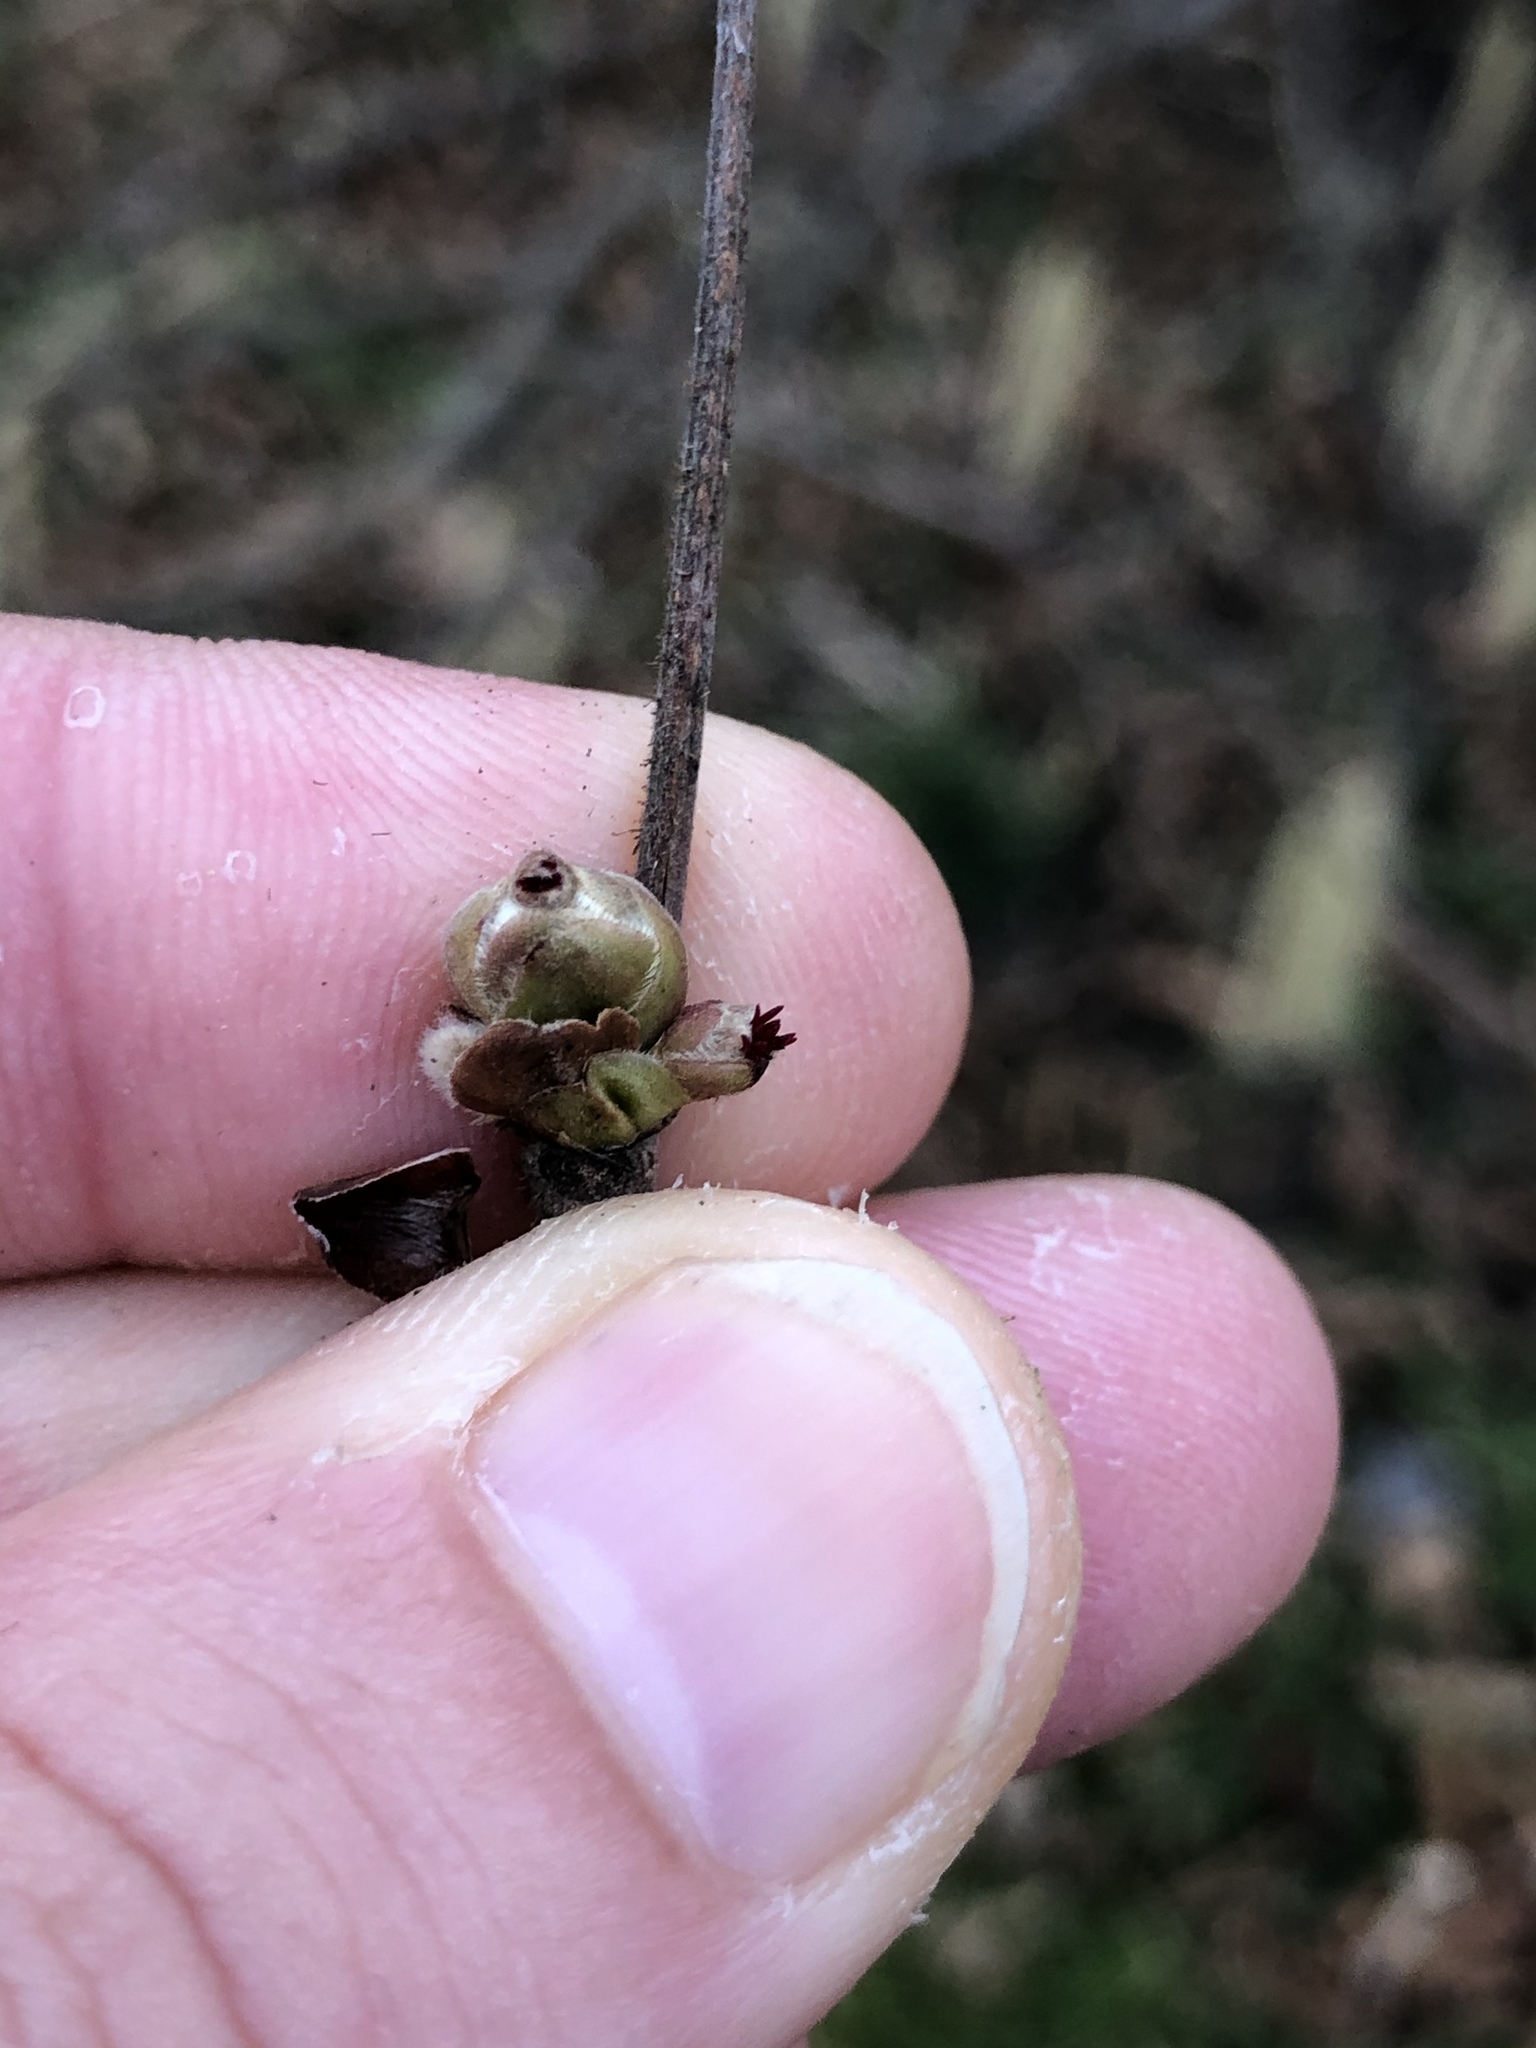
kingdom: Plantae
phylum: Tracheophyta
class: Magnoliopsida
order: Fagales
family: Betulaceae
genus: Corylus
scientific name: Corylus avellana
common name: European hazel
